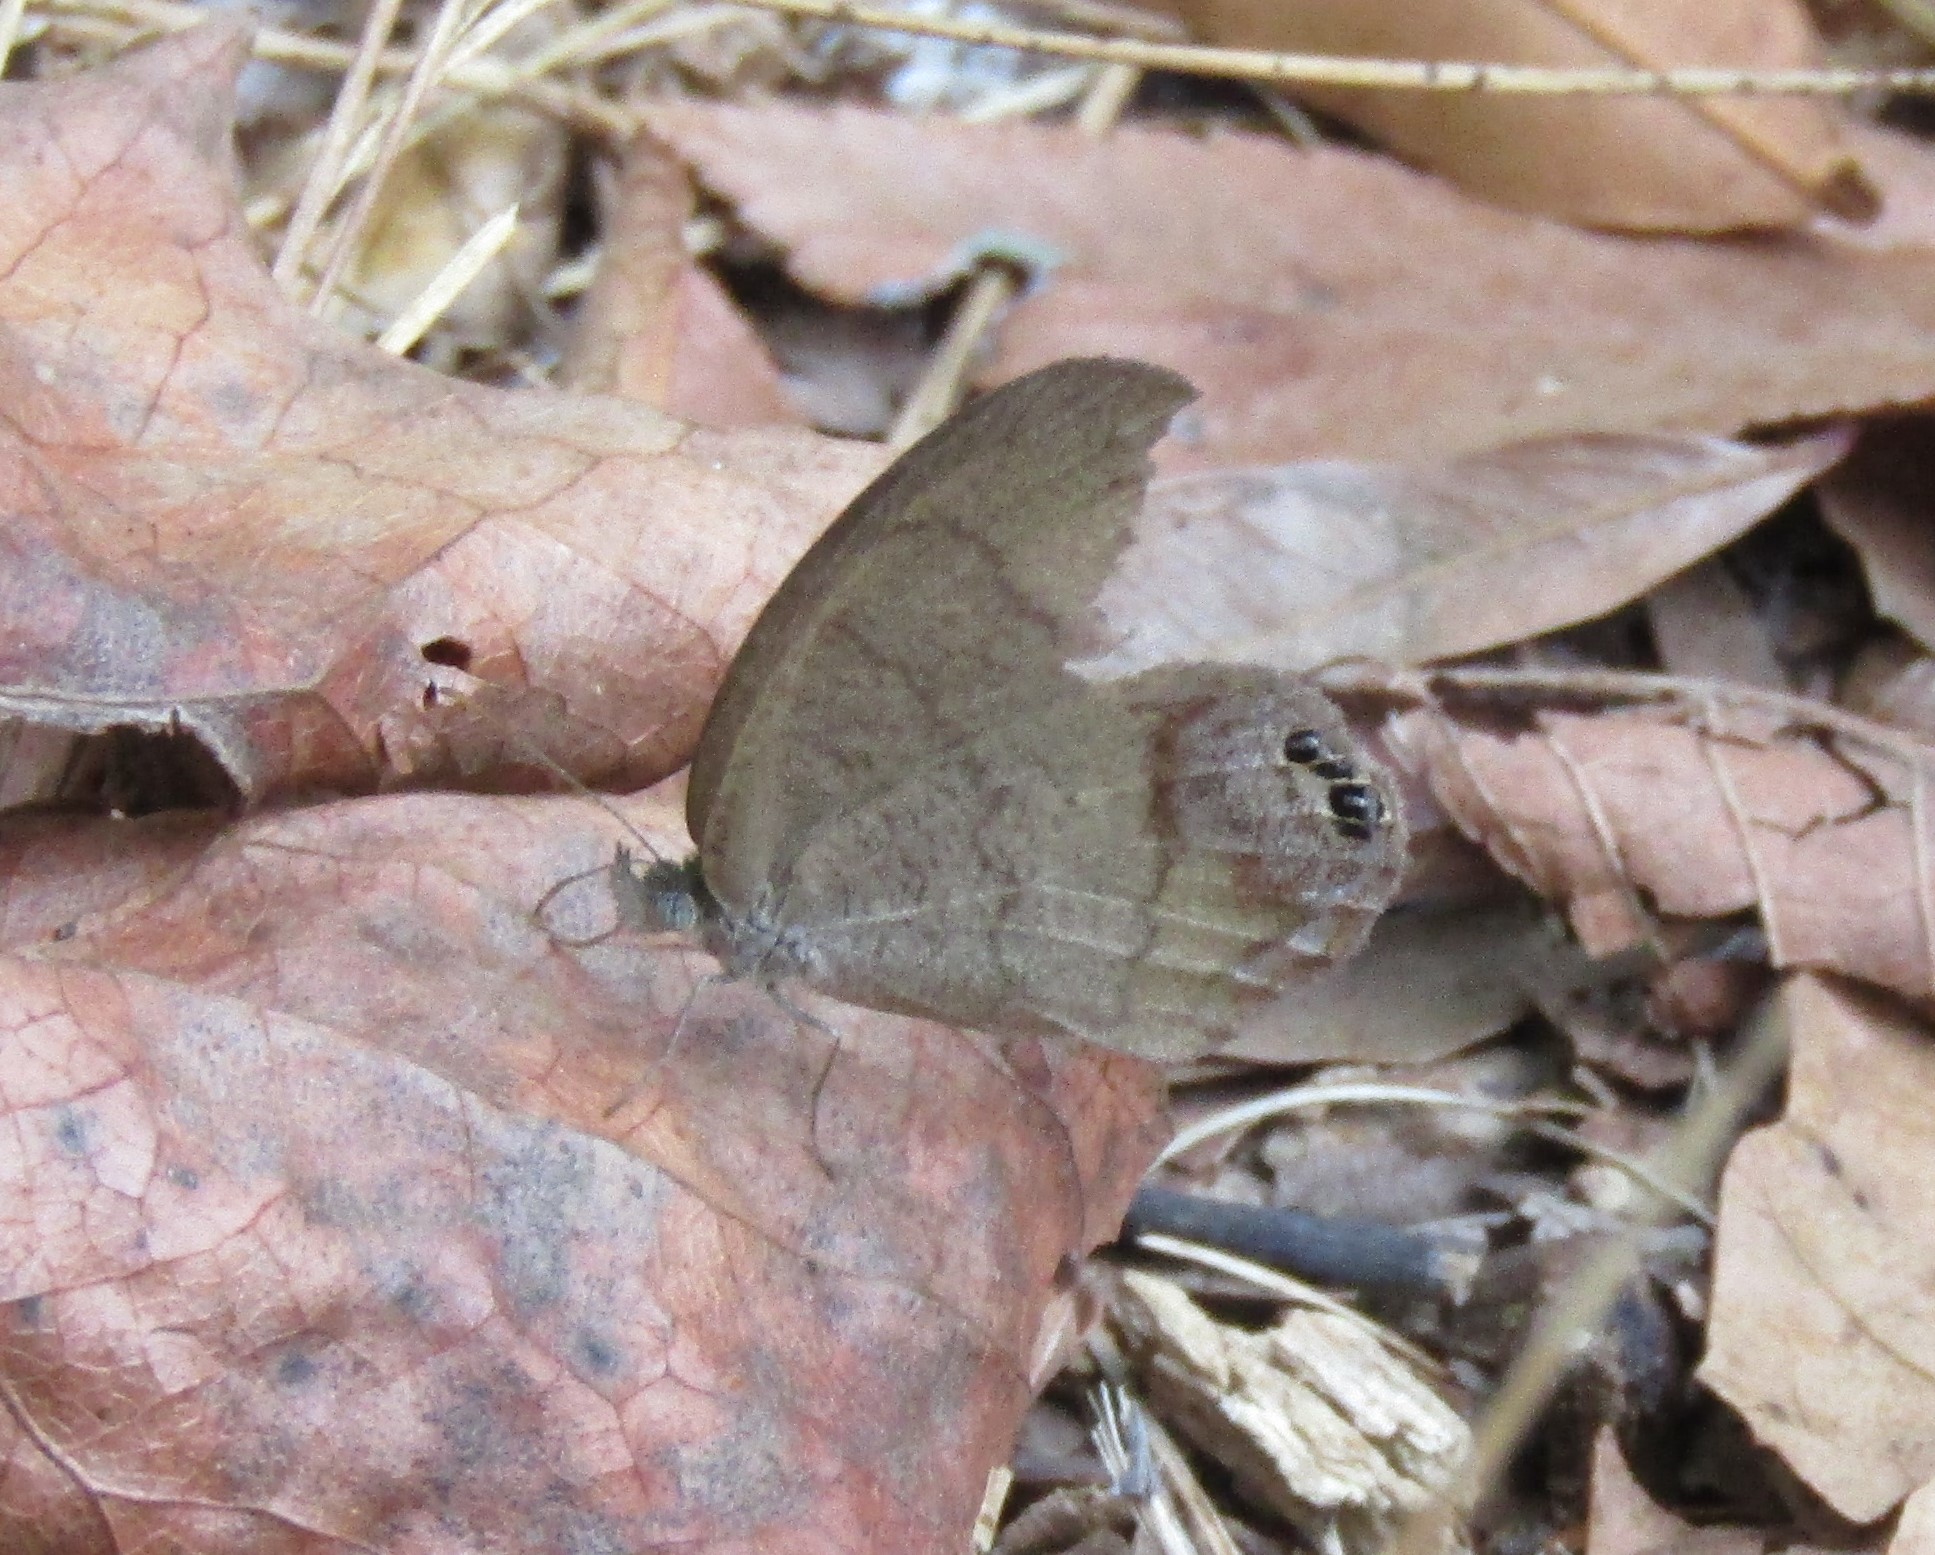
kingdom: Animalia
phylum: Arthropoda
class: Insecta
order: Lepidoptera
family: Nymphalidae
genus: Euptychia
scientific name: Euptychia cornelius
